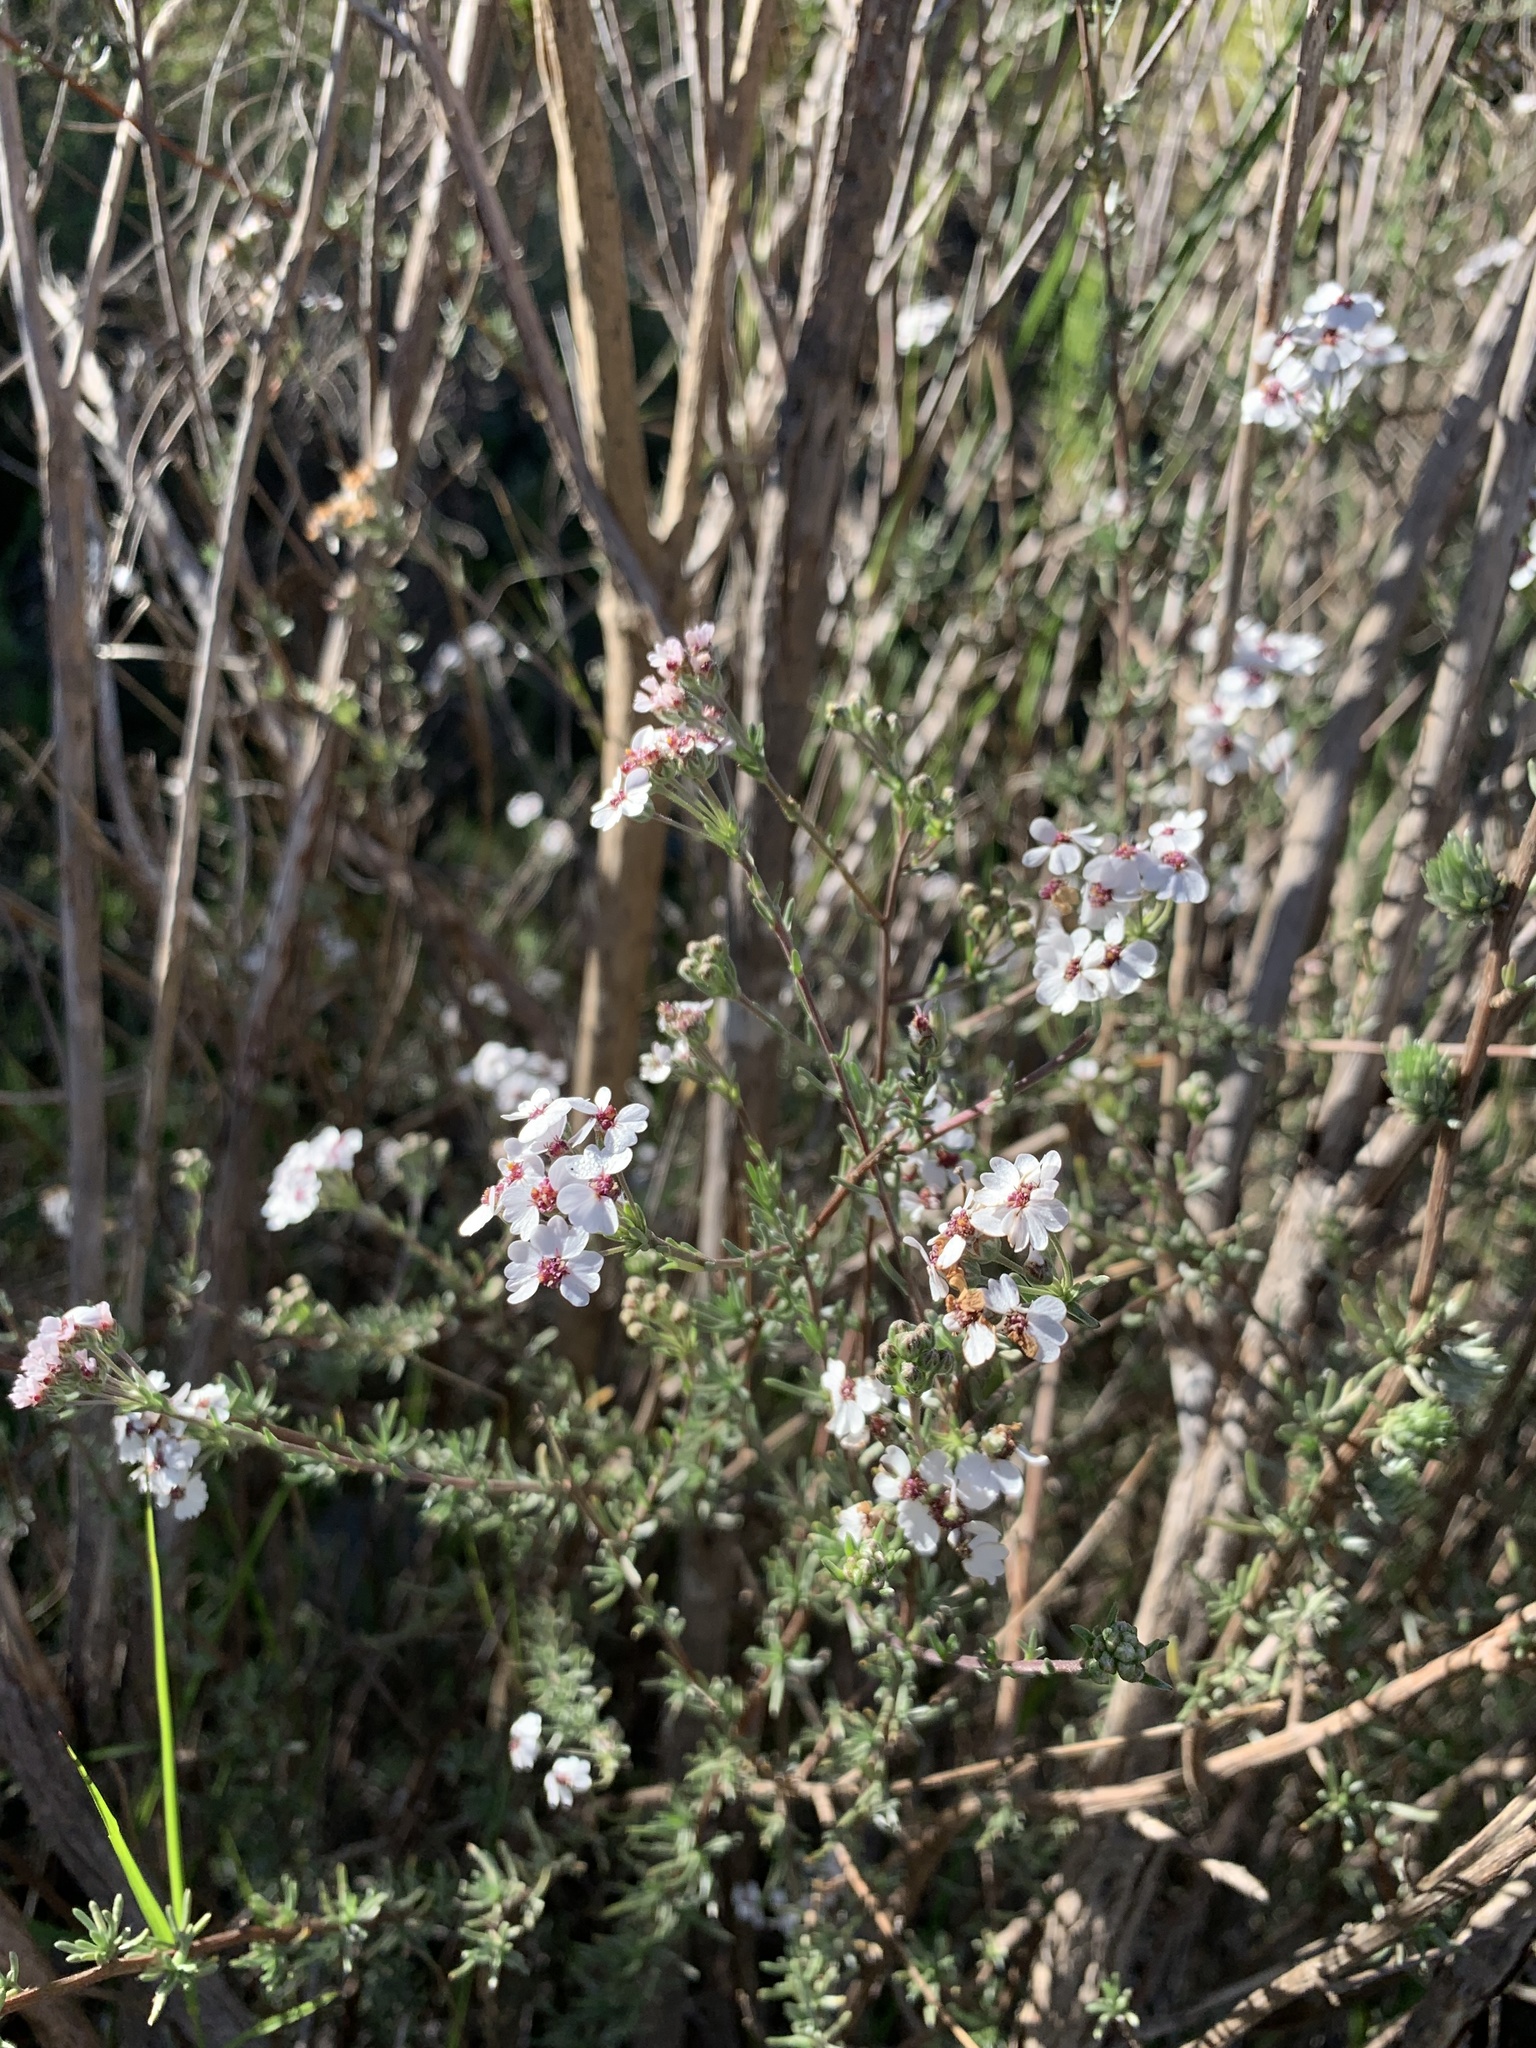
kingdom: Plantae
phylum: Tracheophyta
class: Magnoliopsida
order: Asterales
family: Asteraceae
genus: Eriocephalus
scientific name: Eriocephalus africanus
